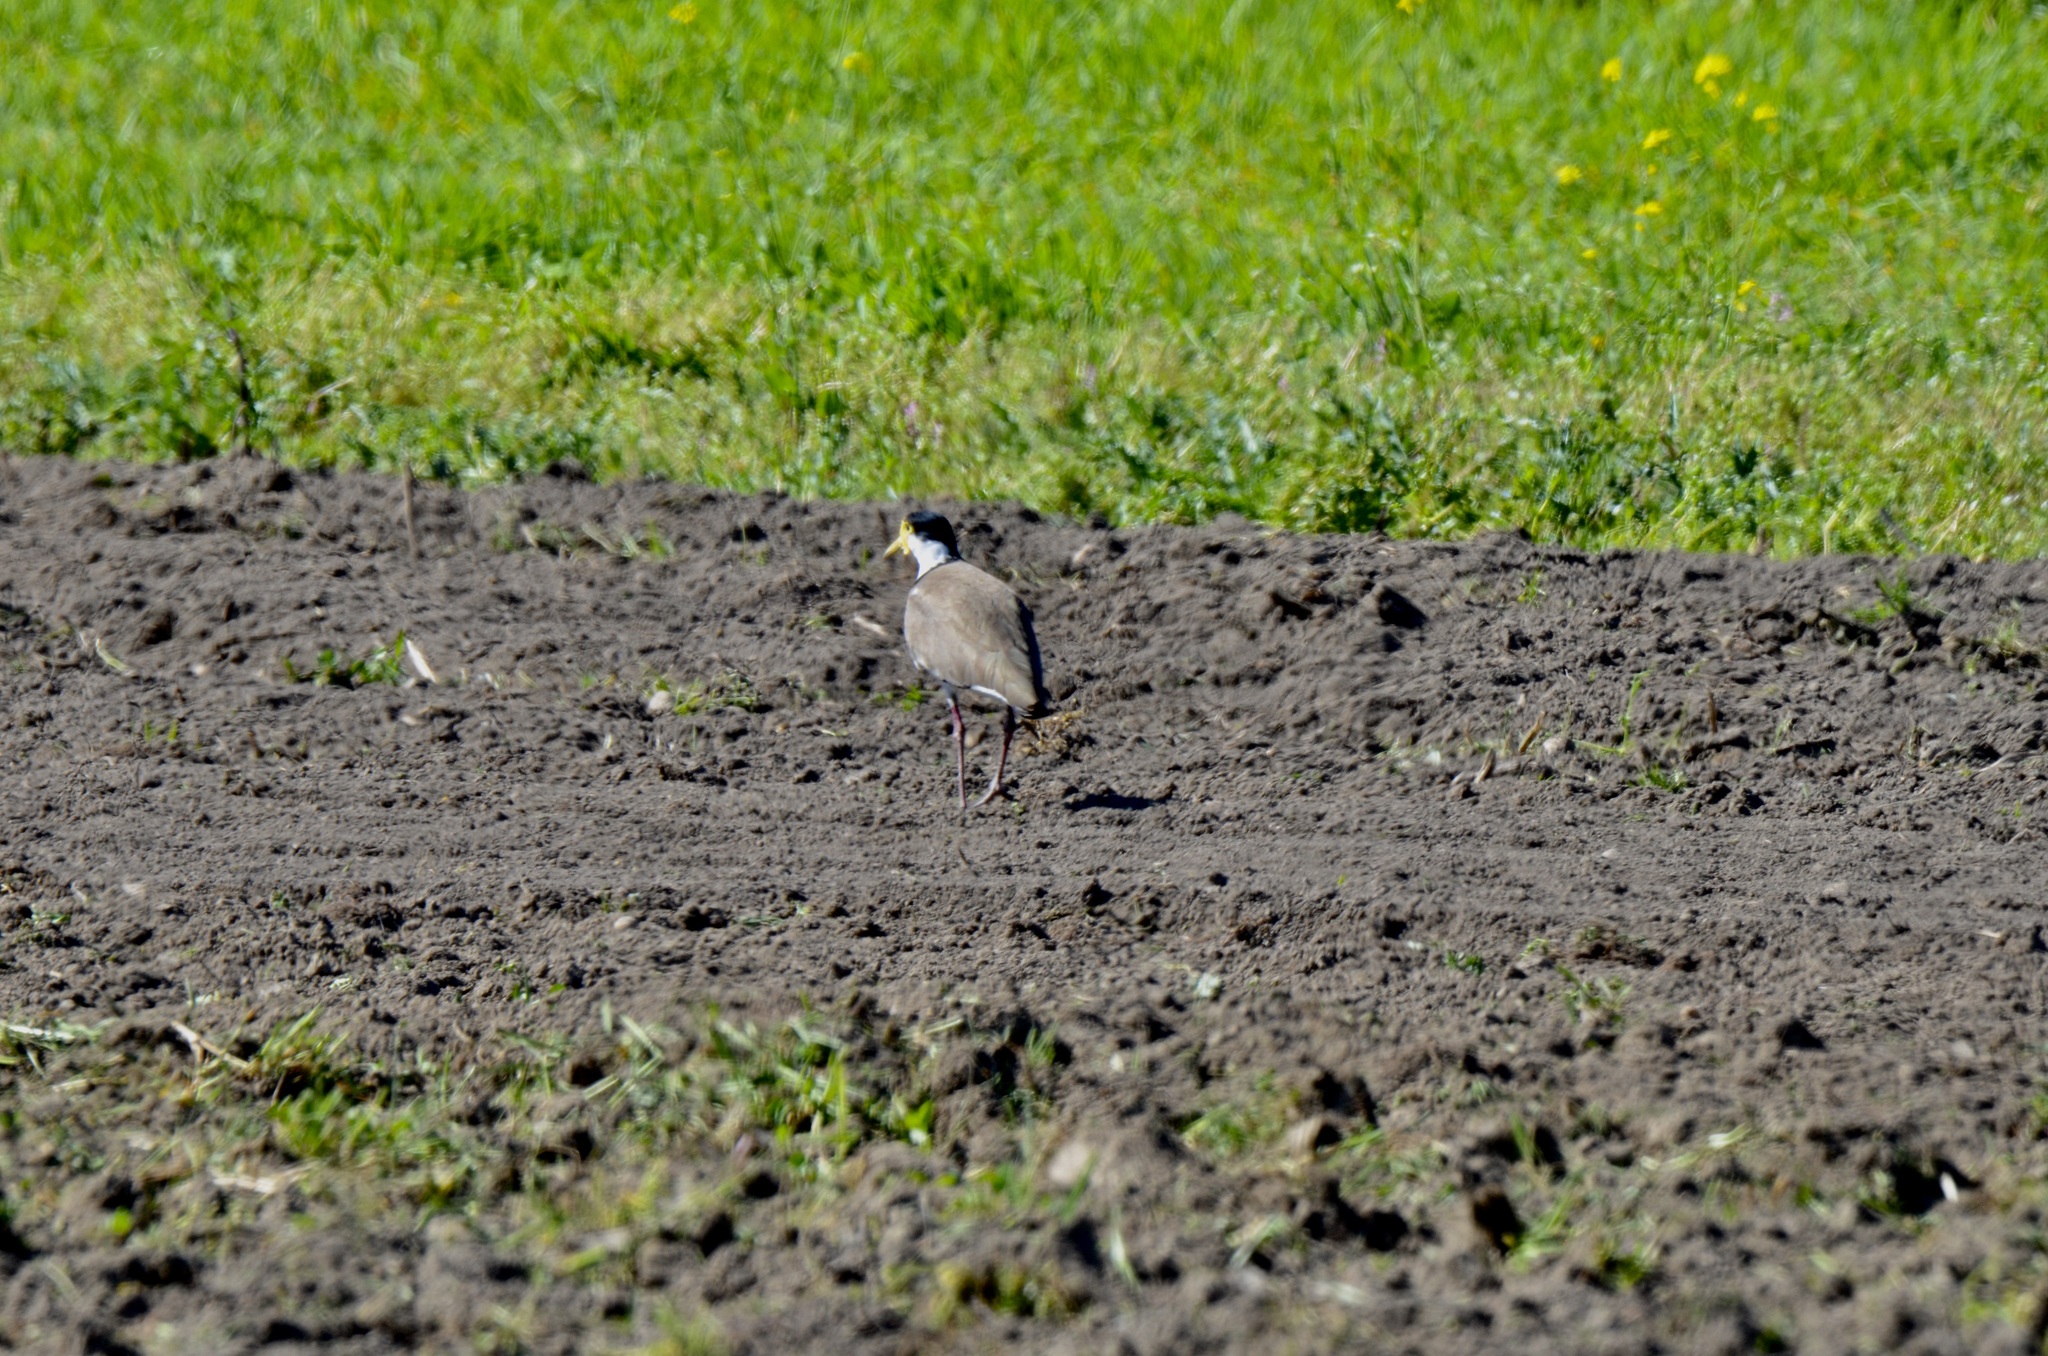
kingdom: Animalia
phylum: Chordata
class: Aves
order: Charadriiformes
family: Charadriidae
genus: Vanellus
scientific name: Vanellus miles
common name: Masked lapwing
